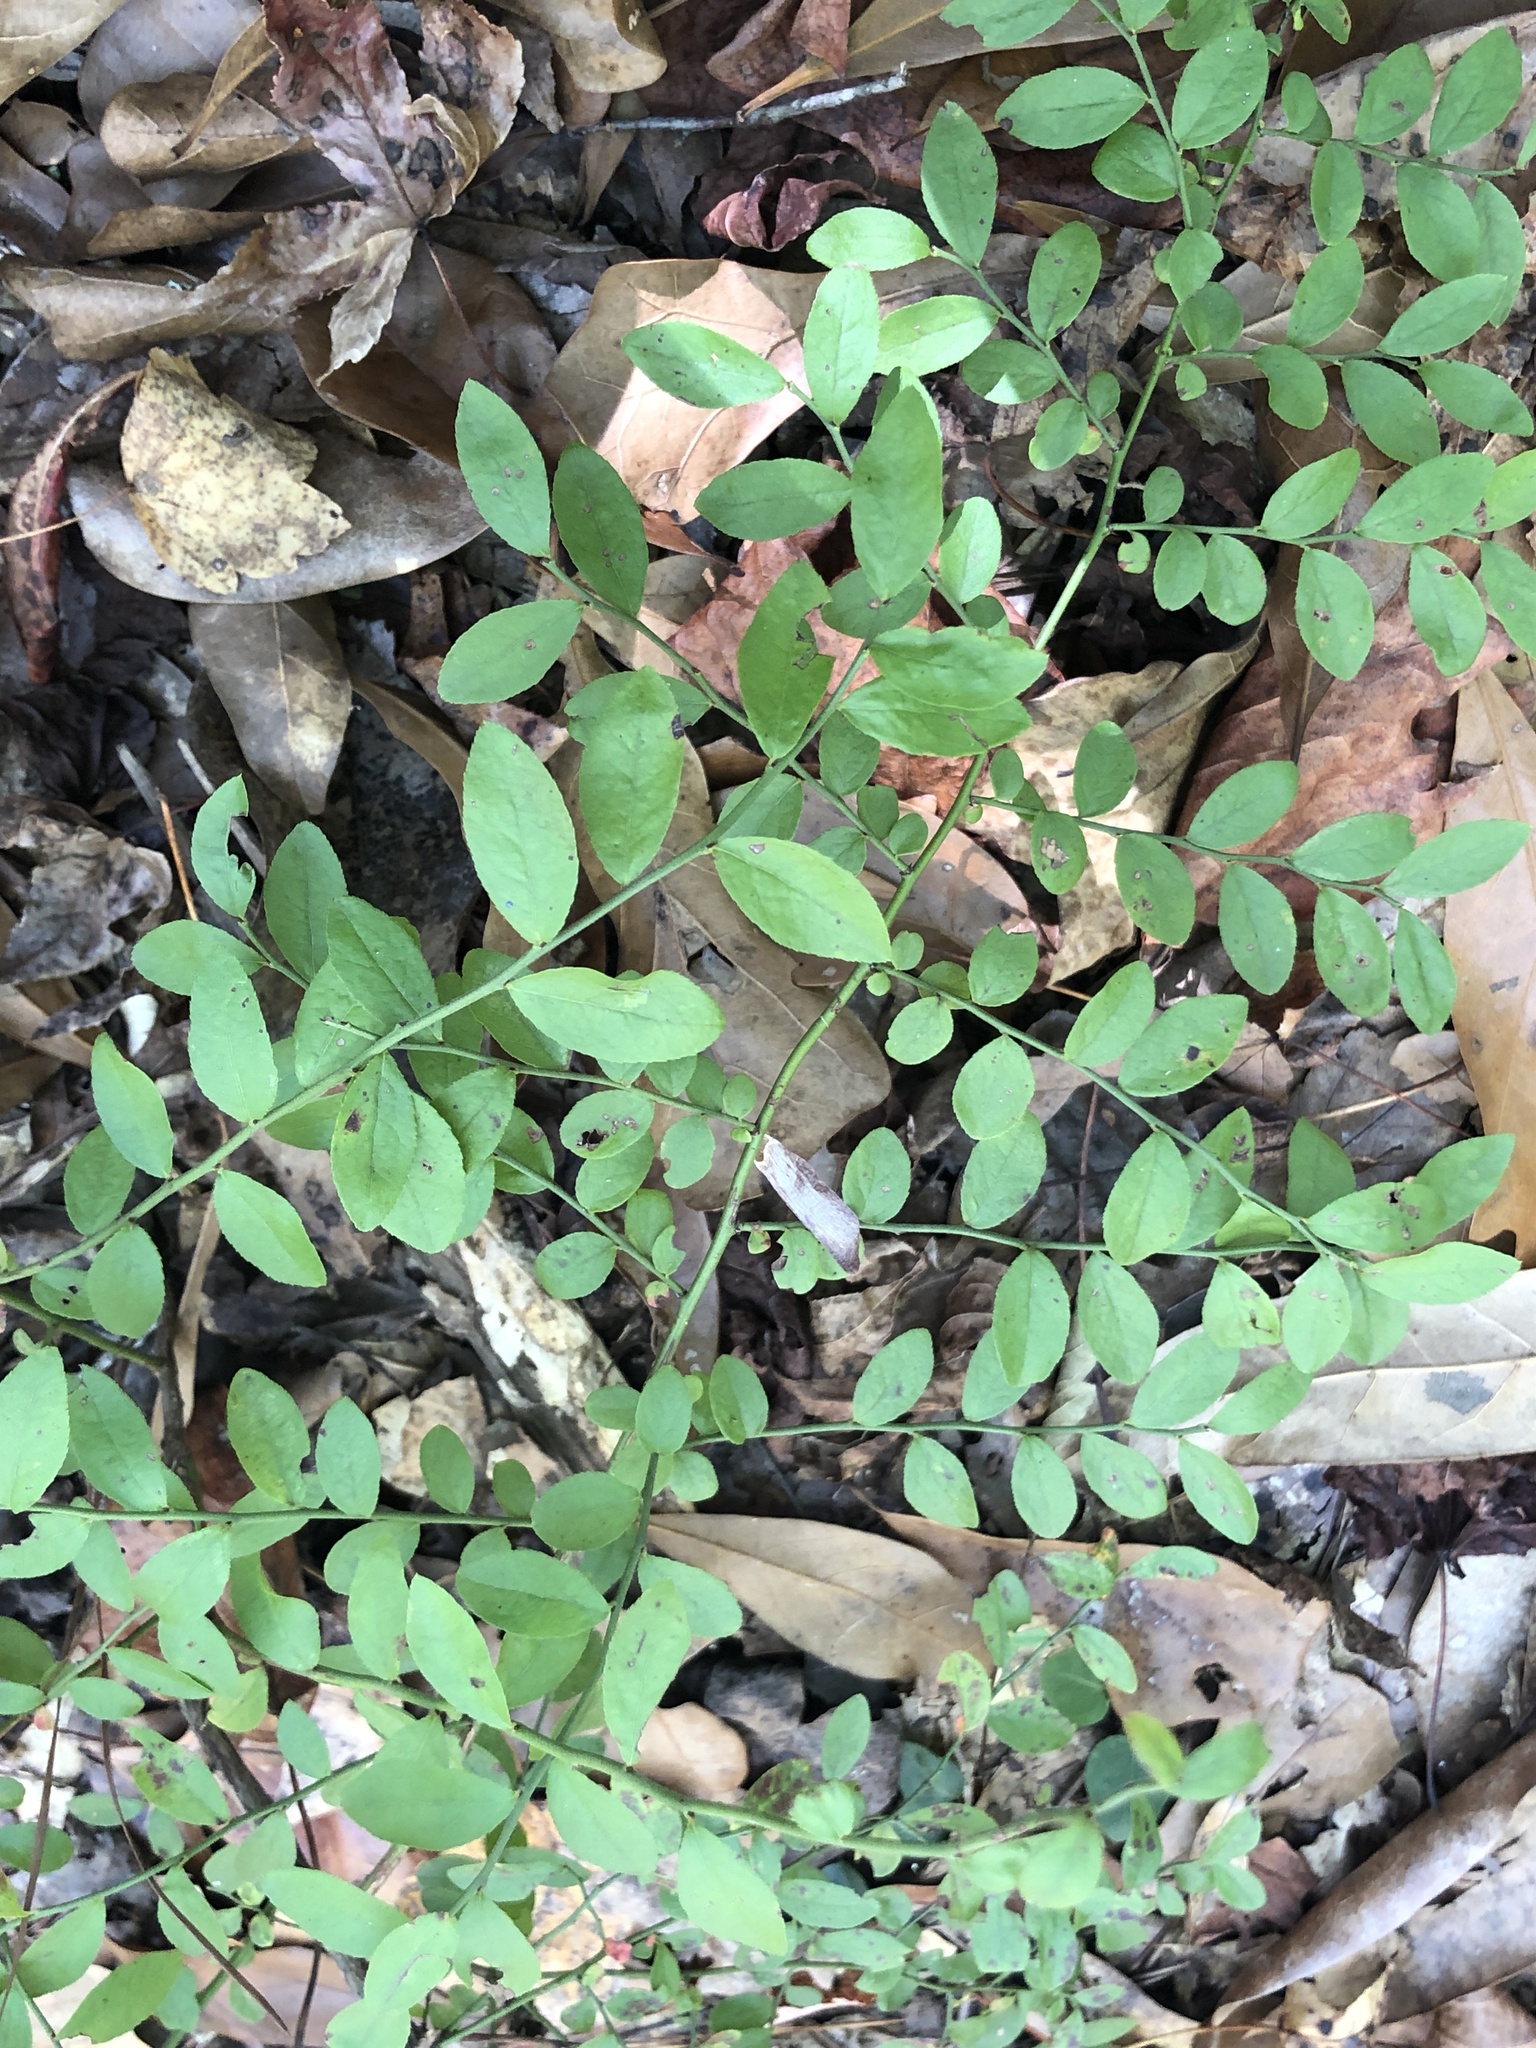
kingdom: Plantae
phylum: Tracheophyta
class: Magnoliopsida
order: Ericales
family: Ericaceae
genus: Vaccinium
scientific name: Vaccinium corymbosum
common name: Blueberry
